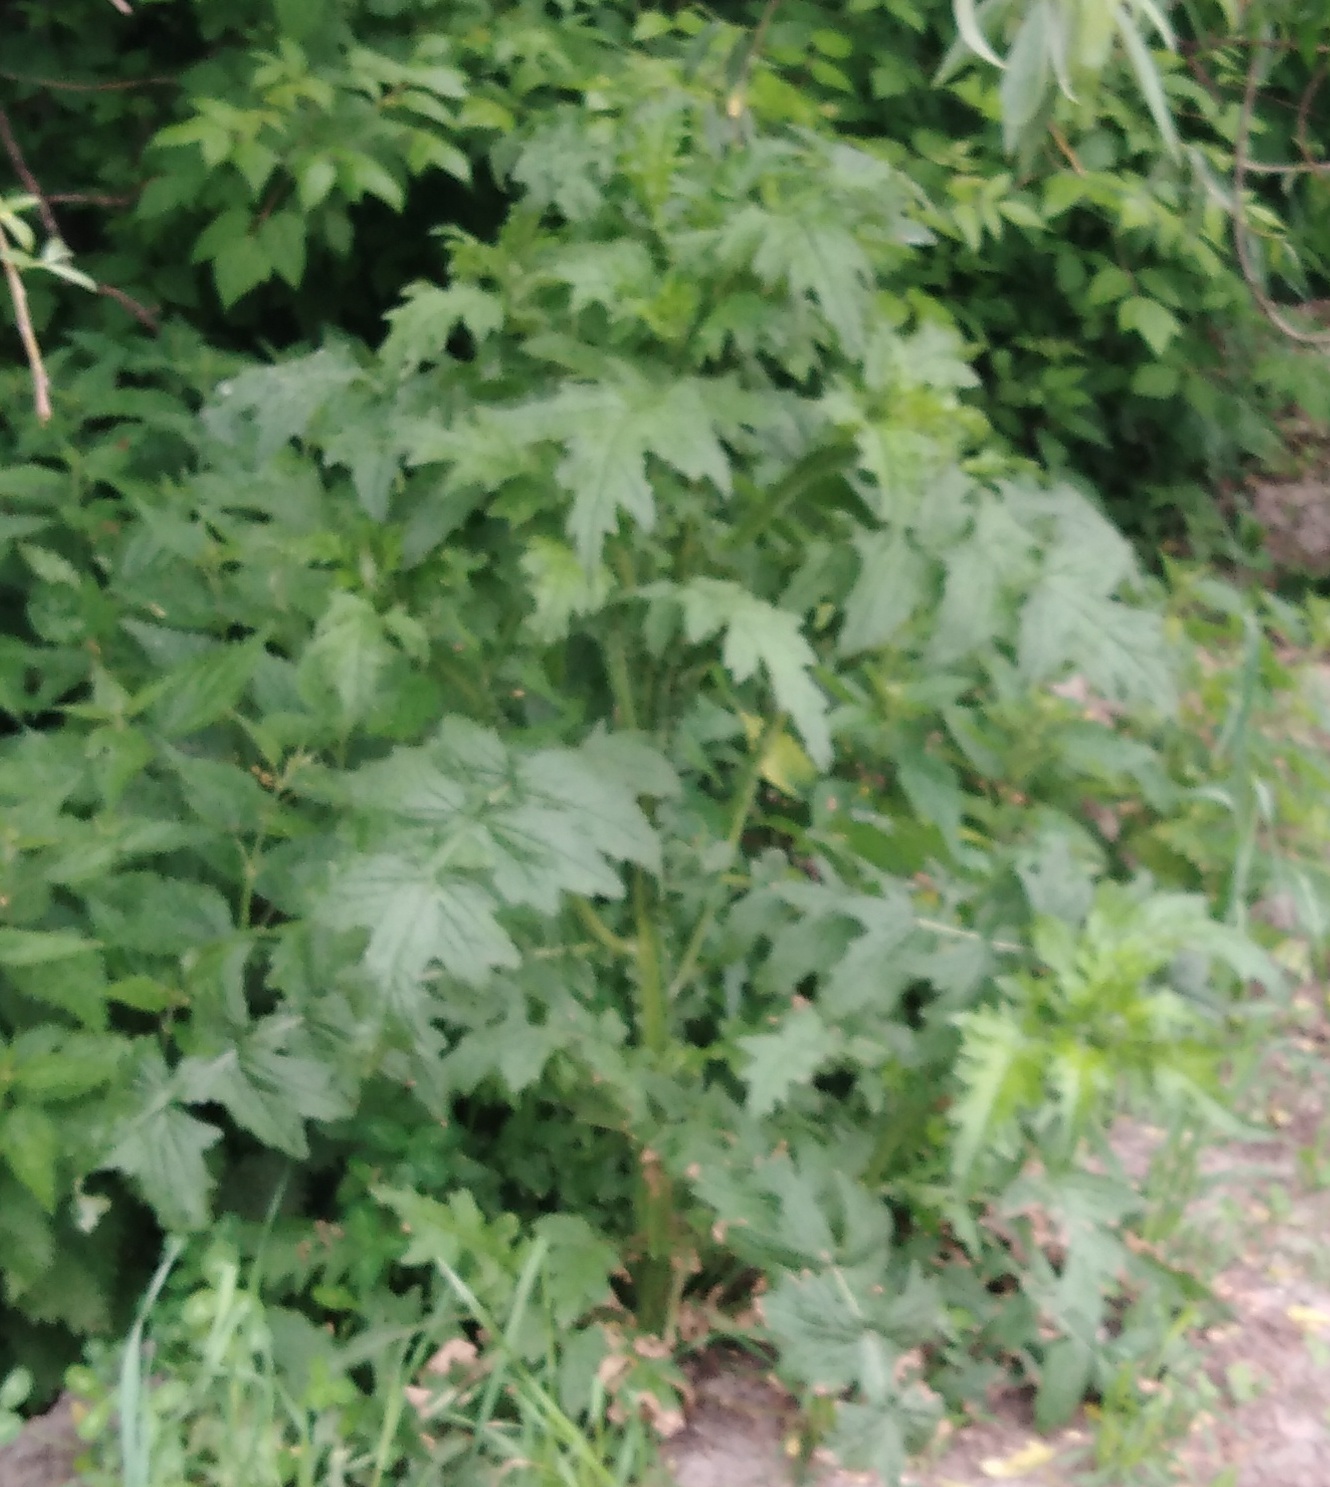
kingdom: Plantae
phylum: Tracheophyta
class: Magnoliopsida
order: Asterales
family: Asteraceae
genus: Carduus
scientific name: Carduus crispus
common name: Welted thistle
